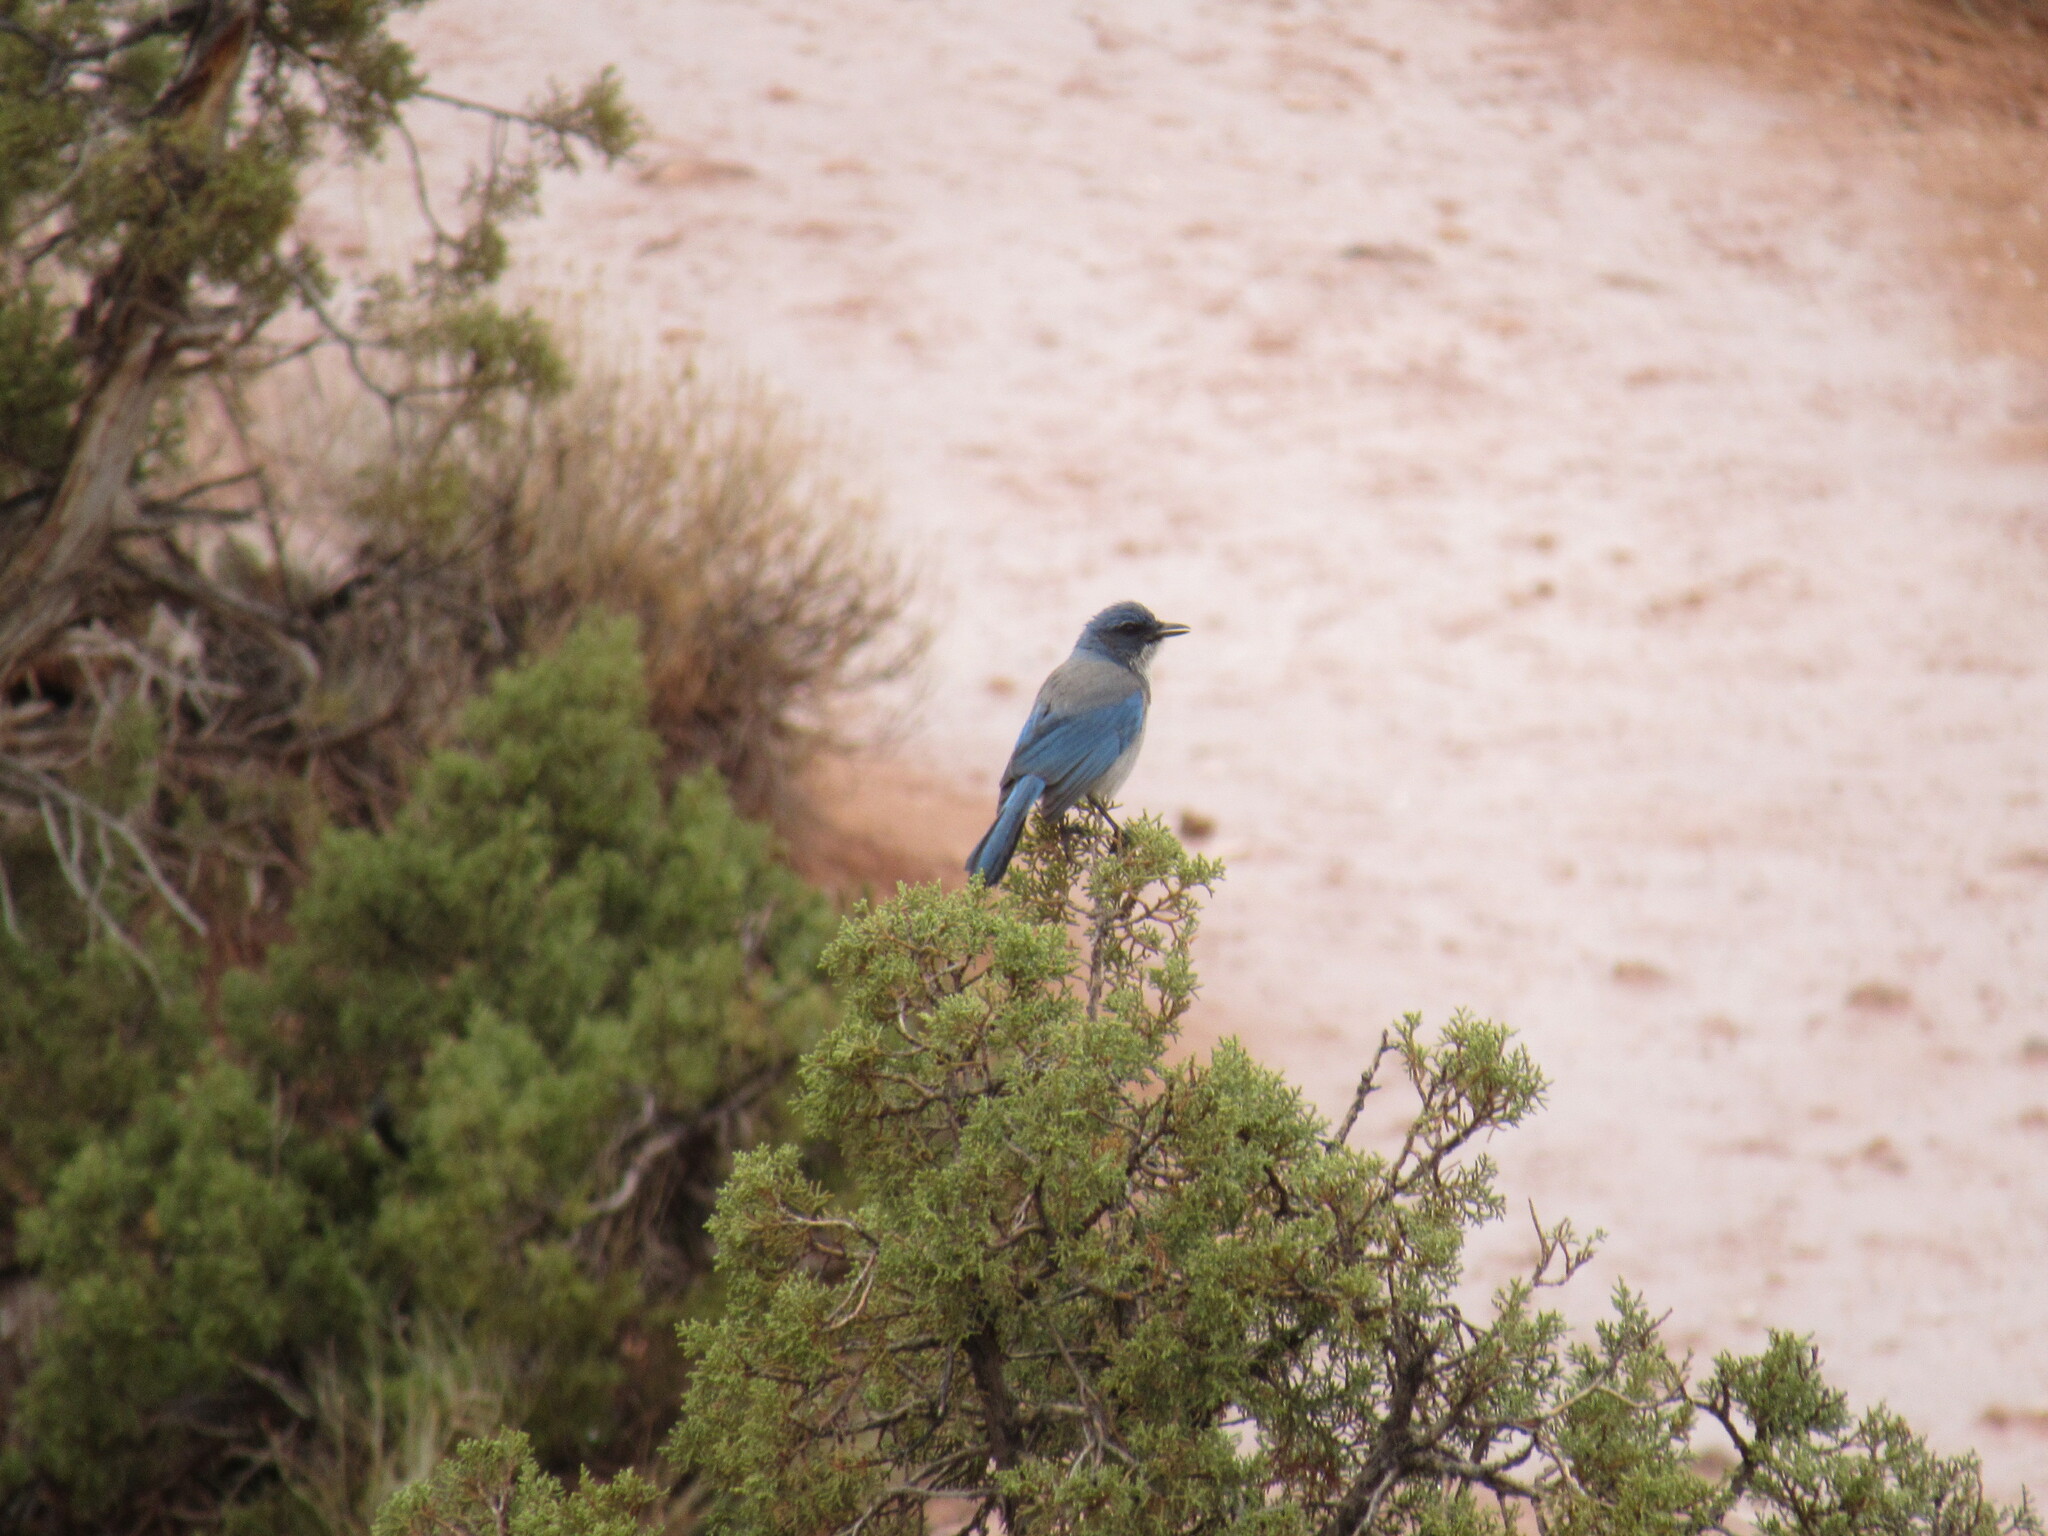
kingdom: Animalia
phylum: Chordata
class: Aves
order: Passeriformes
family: Corvidae
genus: Aphelocoma
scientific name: Aphelocoma woodhouseii
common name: Woodhouse's scrub-jay
